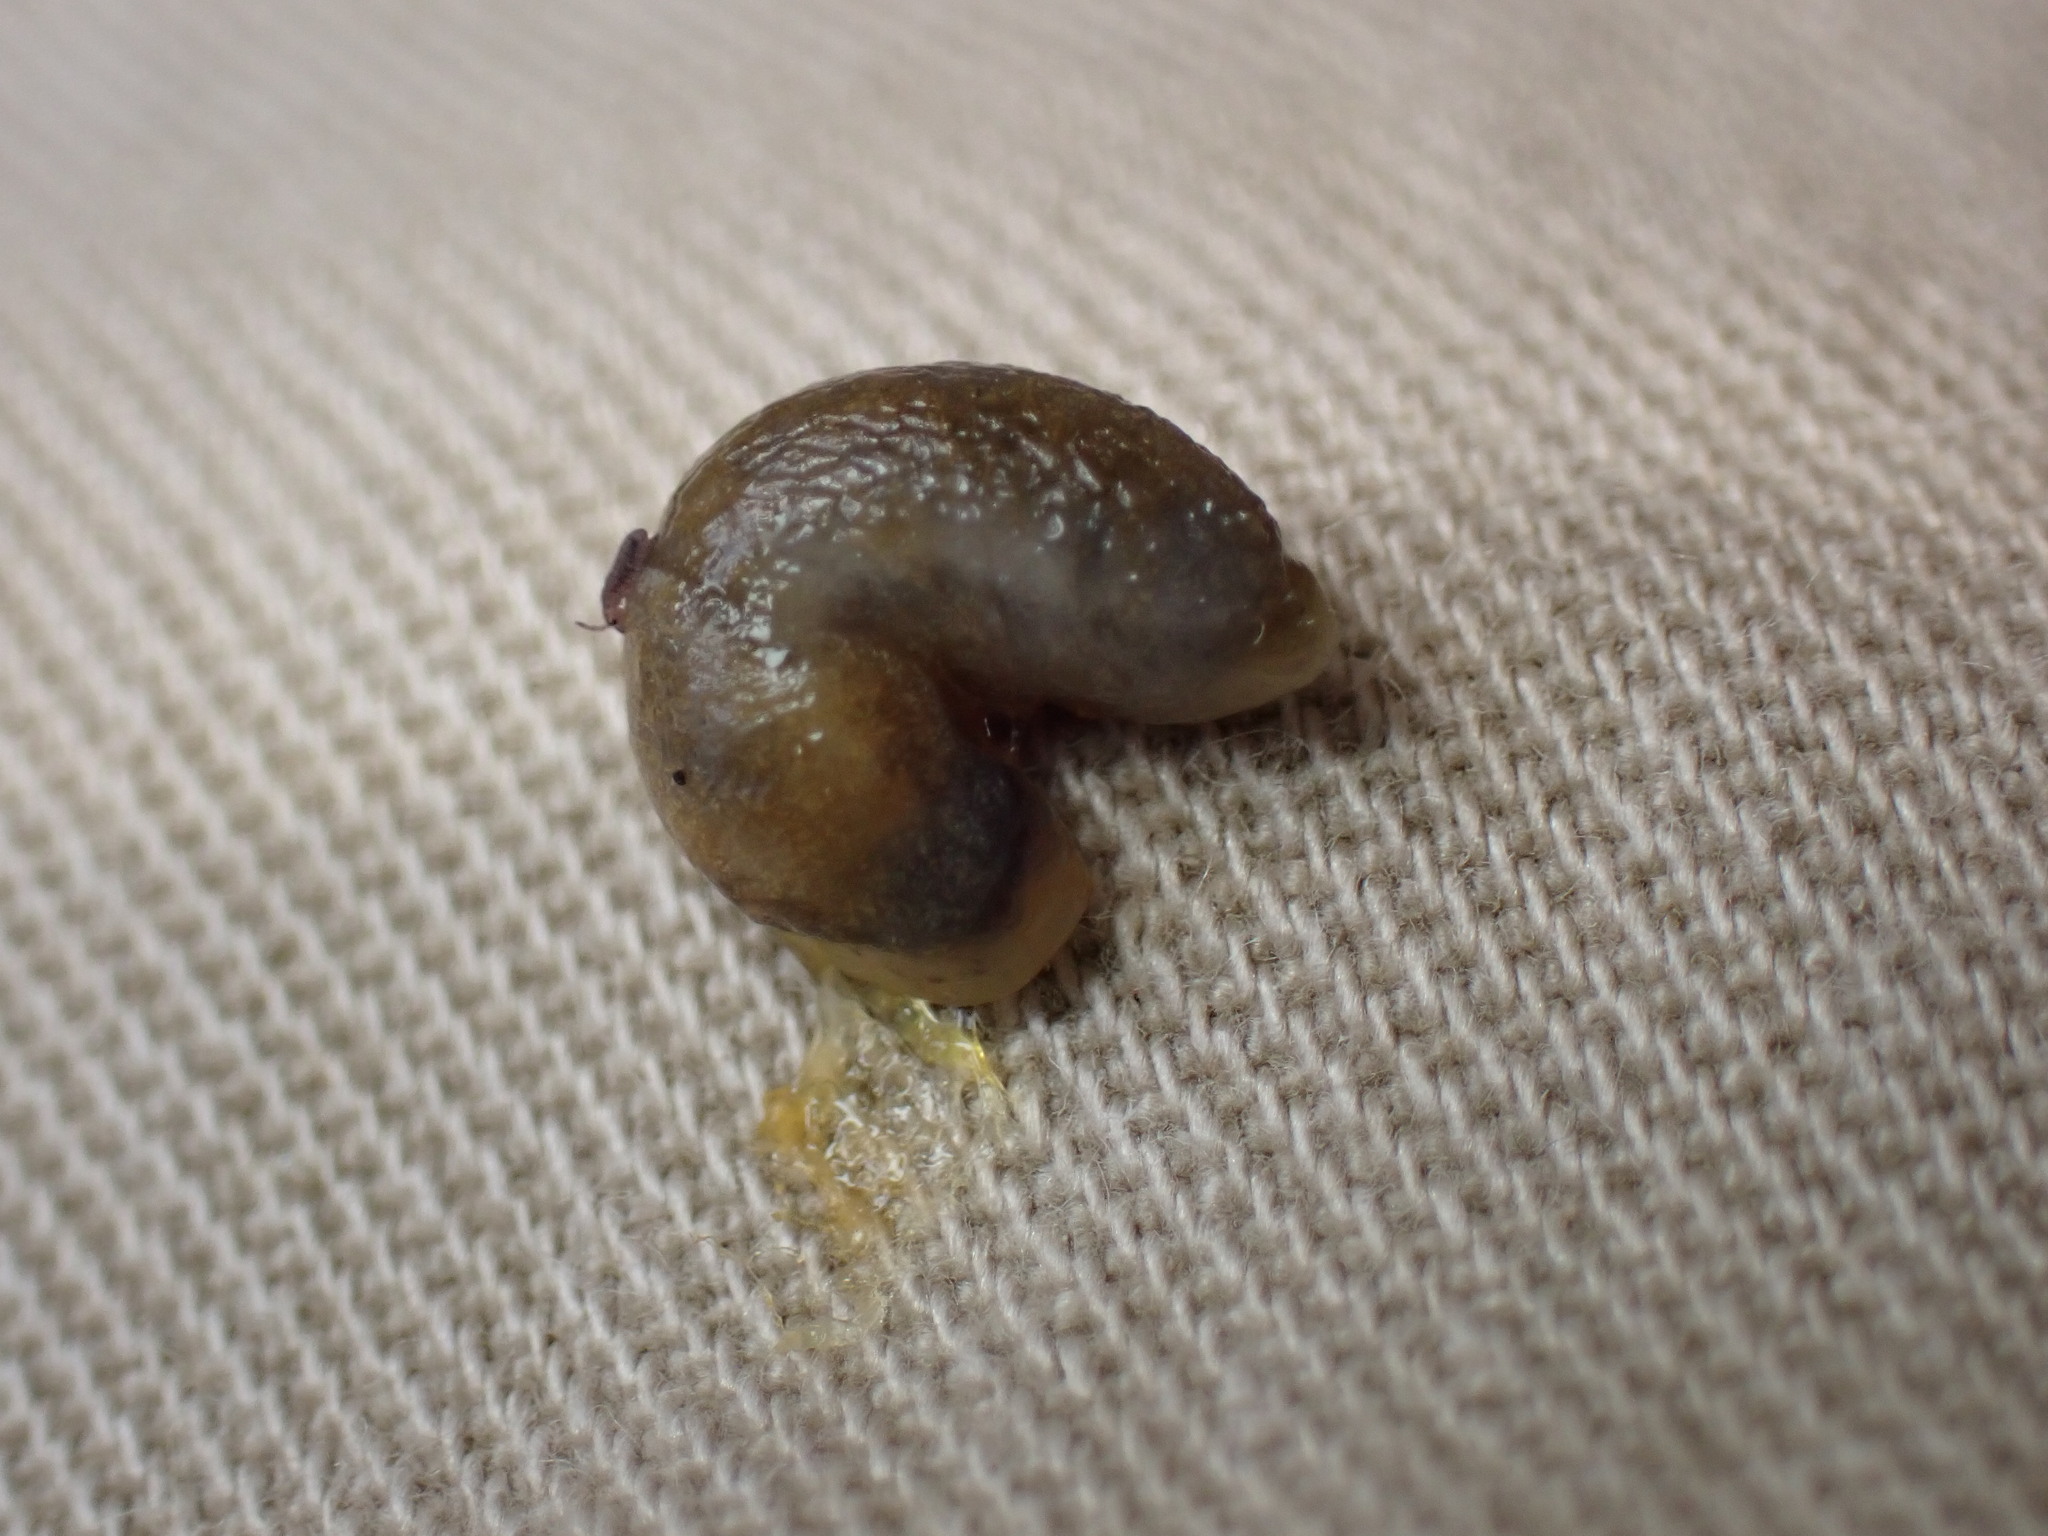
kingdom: Animalia
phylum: Mollusca
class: Gastropoda
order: Stylommatophora
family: Arionidae
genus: Arion
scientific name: Arion intermedius
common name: Hedgehog slug
